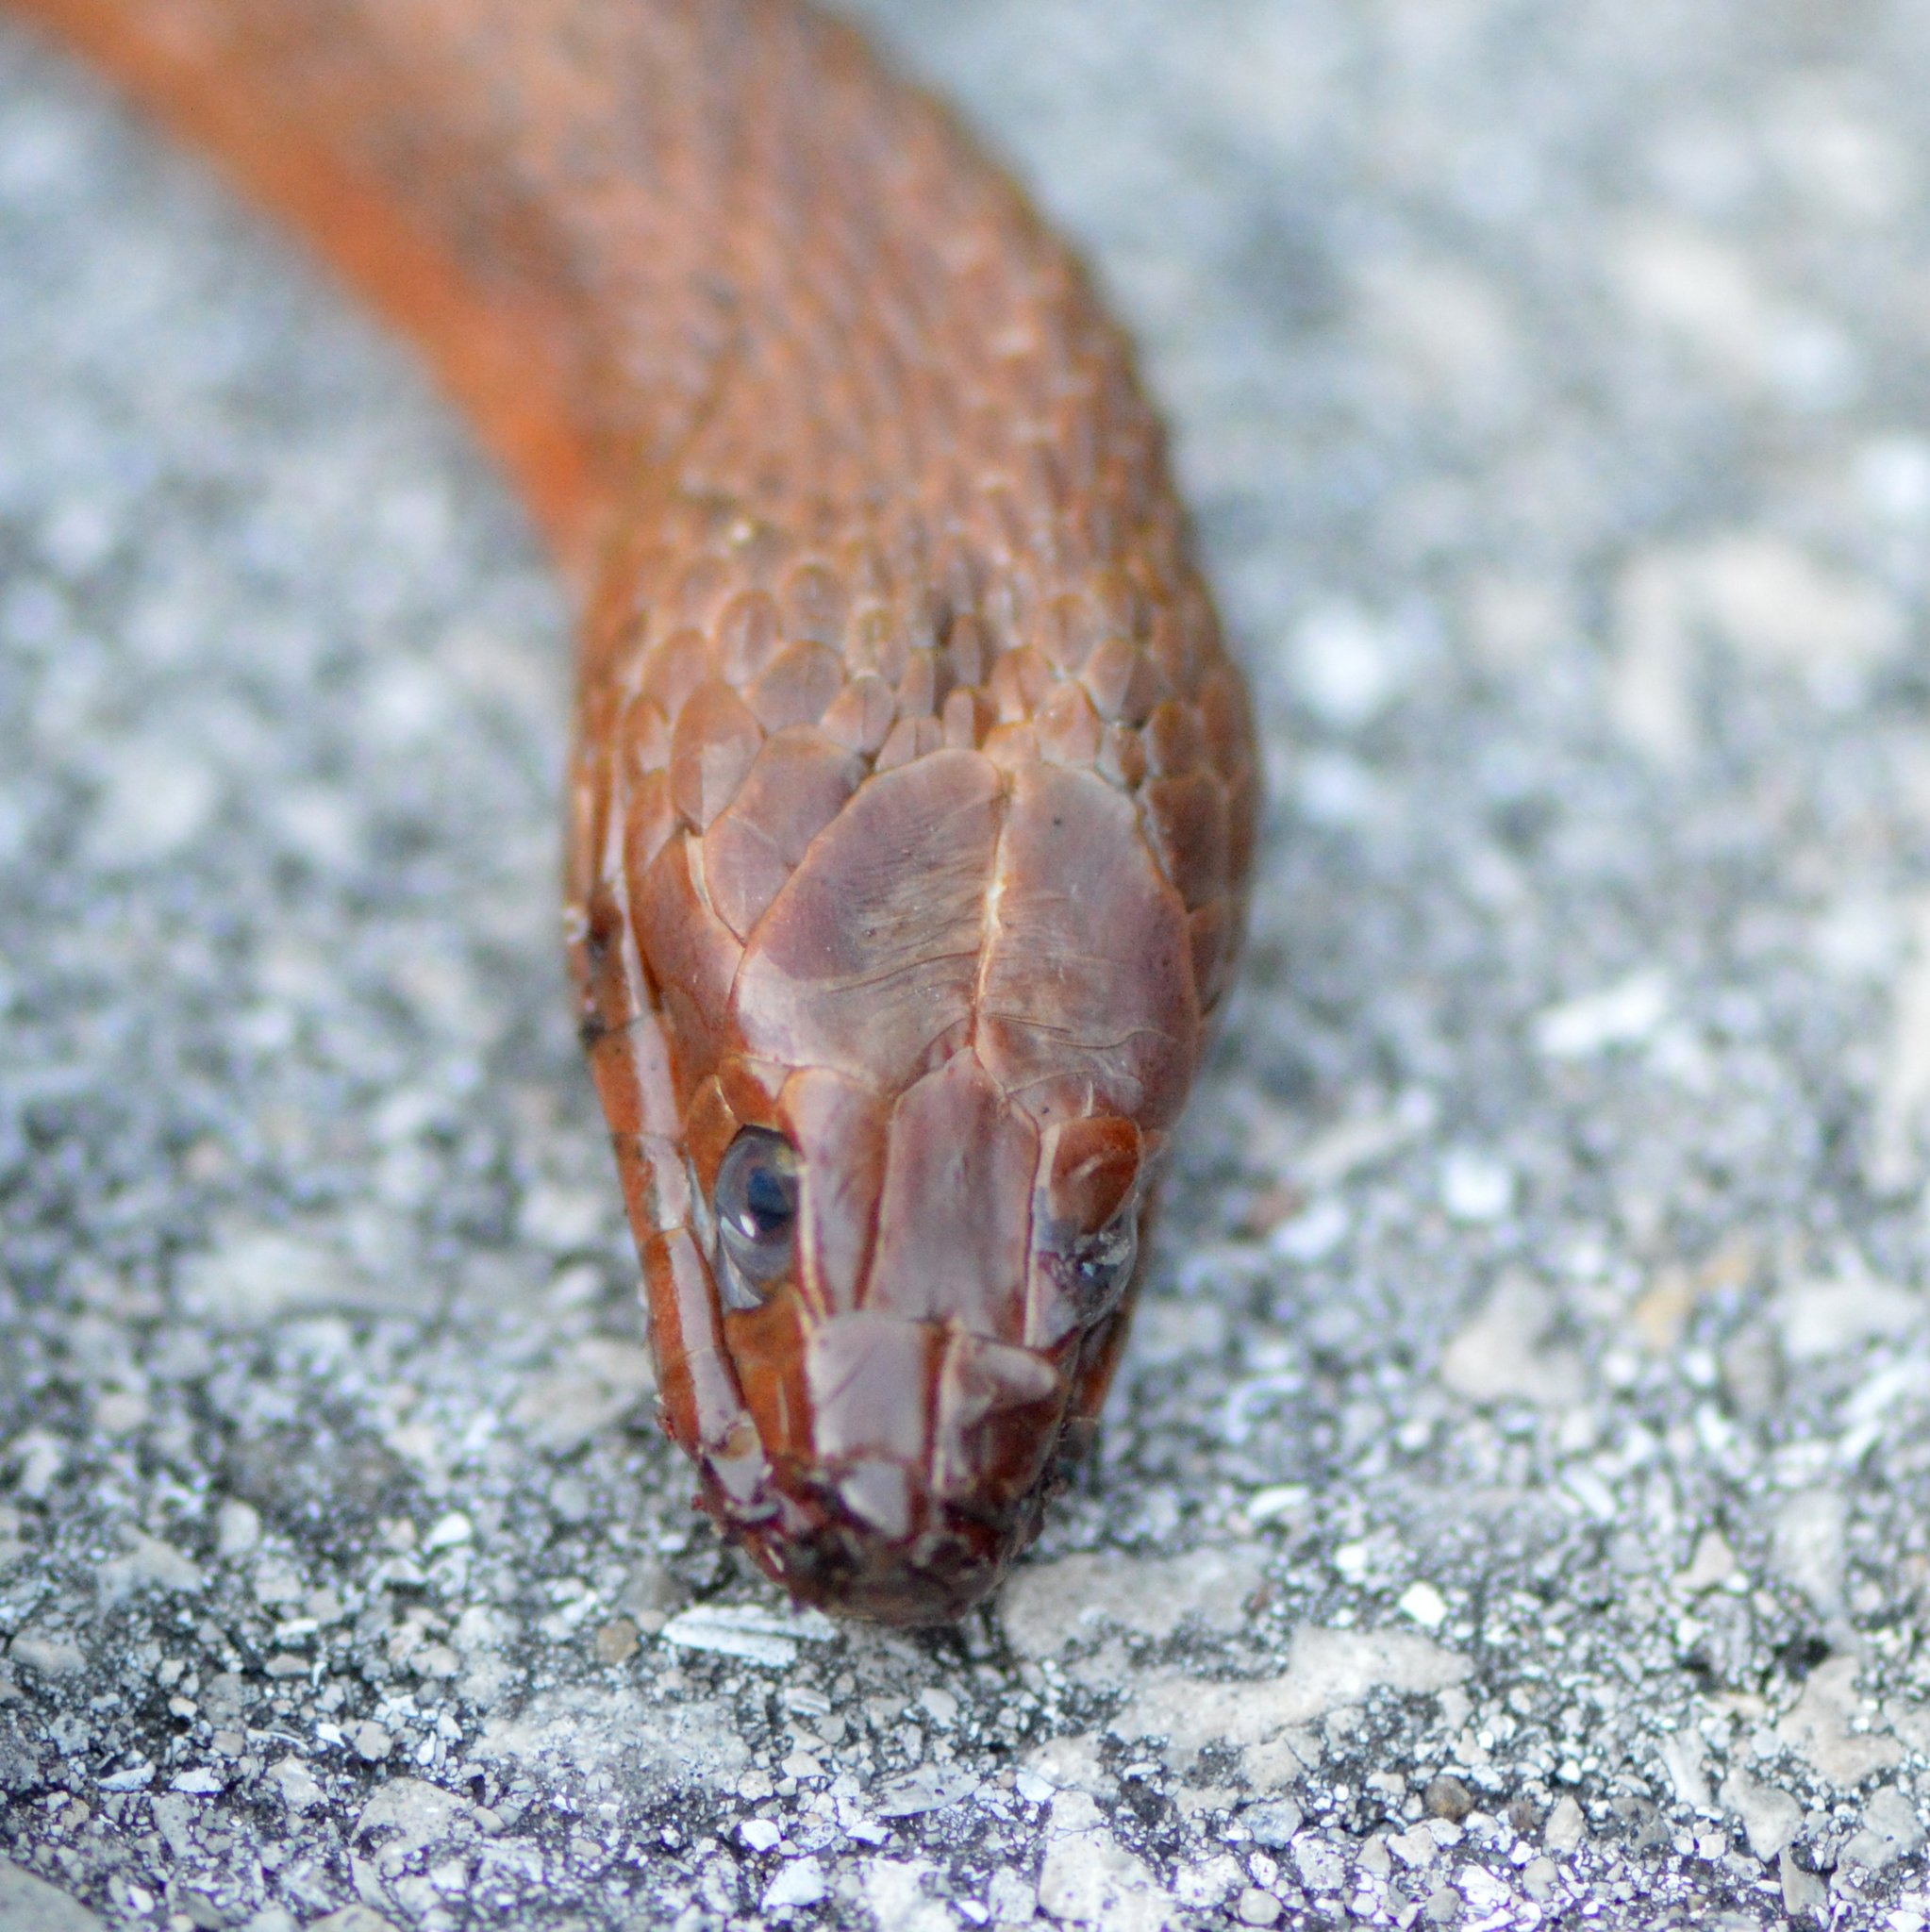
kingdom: Animalia
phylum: Chordata
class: Squamata
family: Colubridae
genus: Nerodia
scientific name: Nerodia clarkii
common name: Atlantic saltmarsh snake
